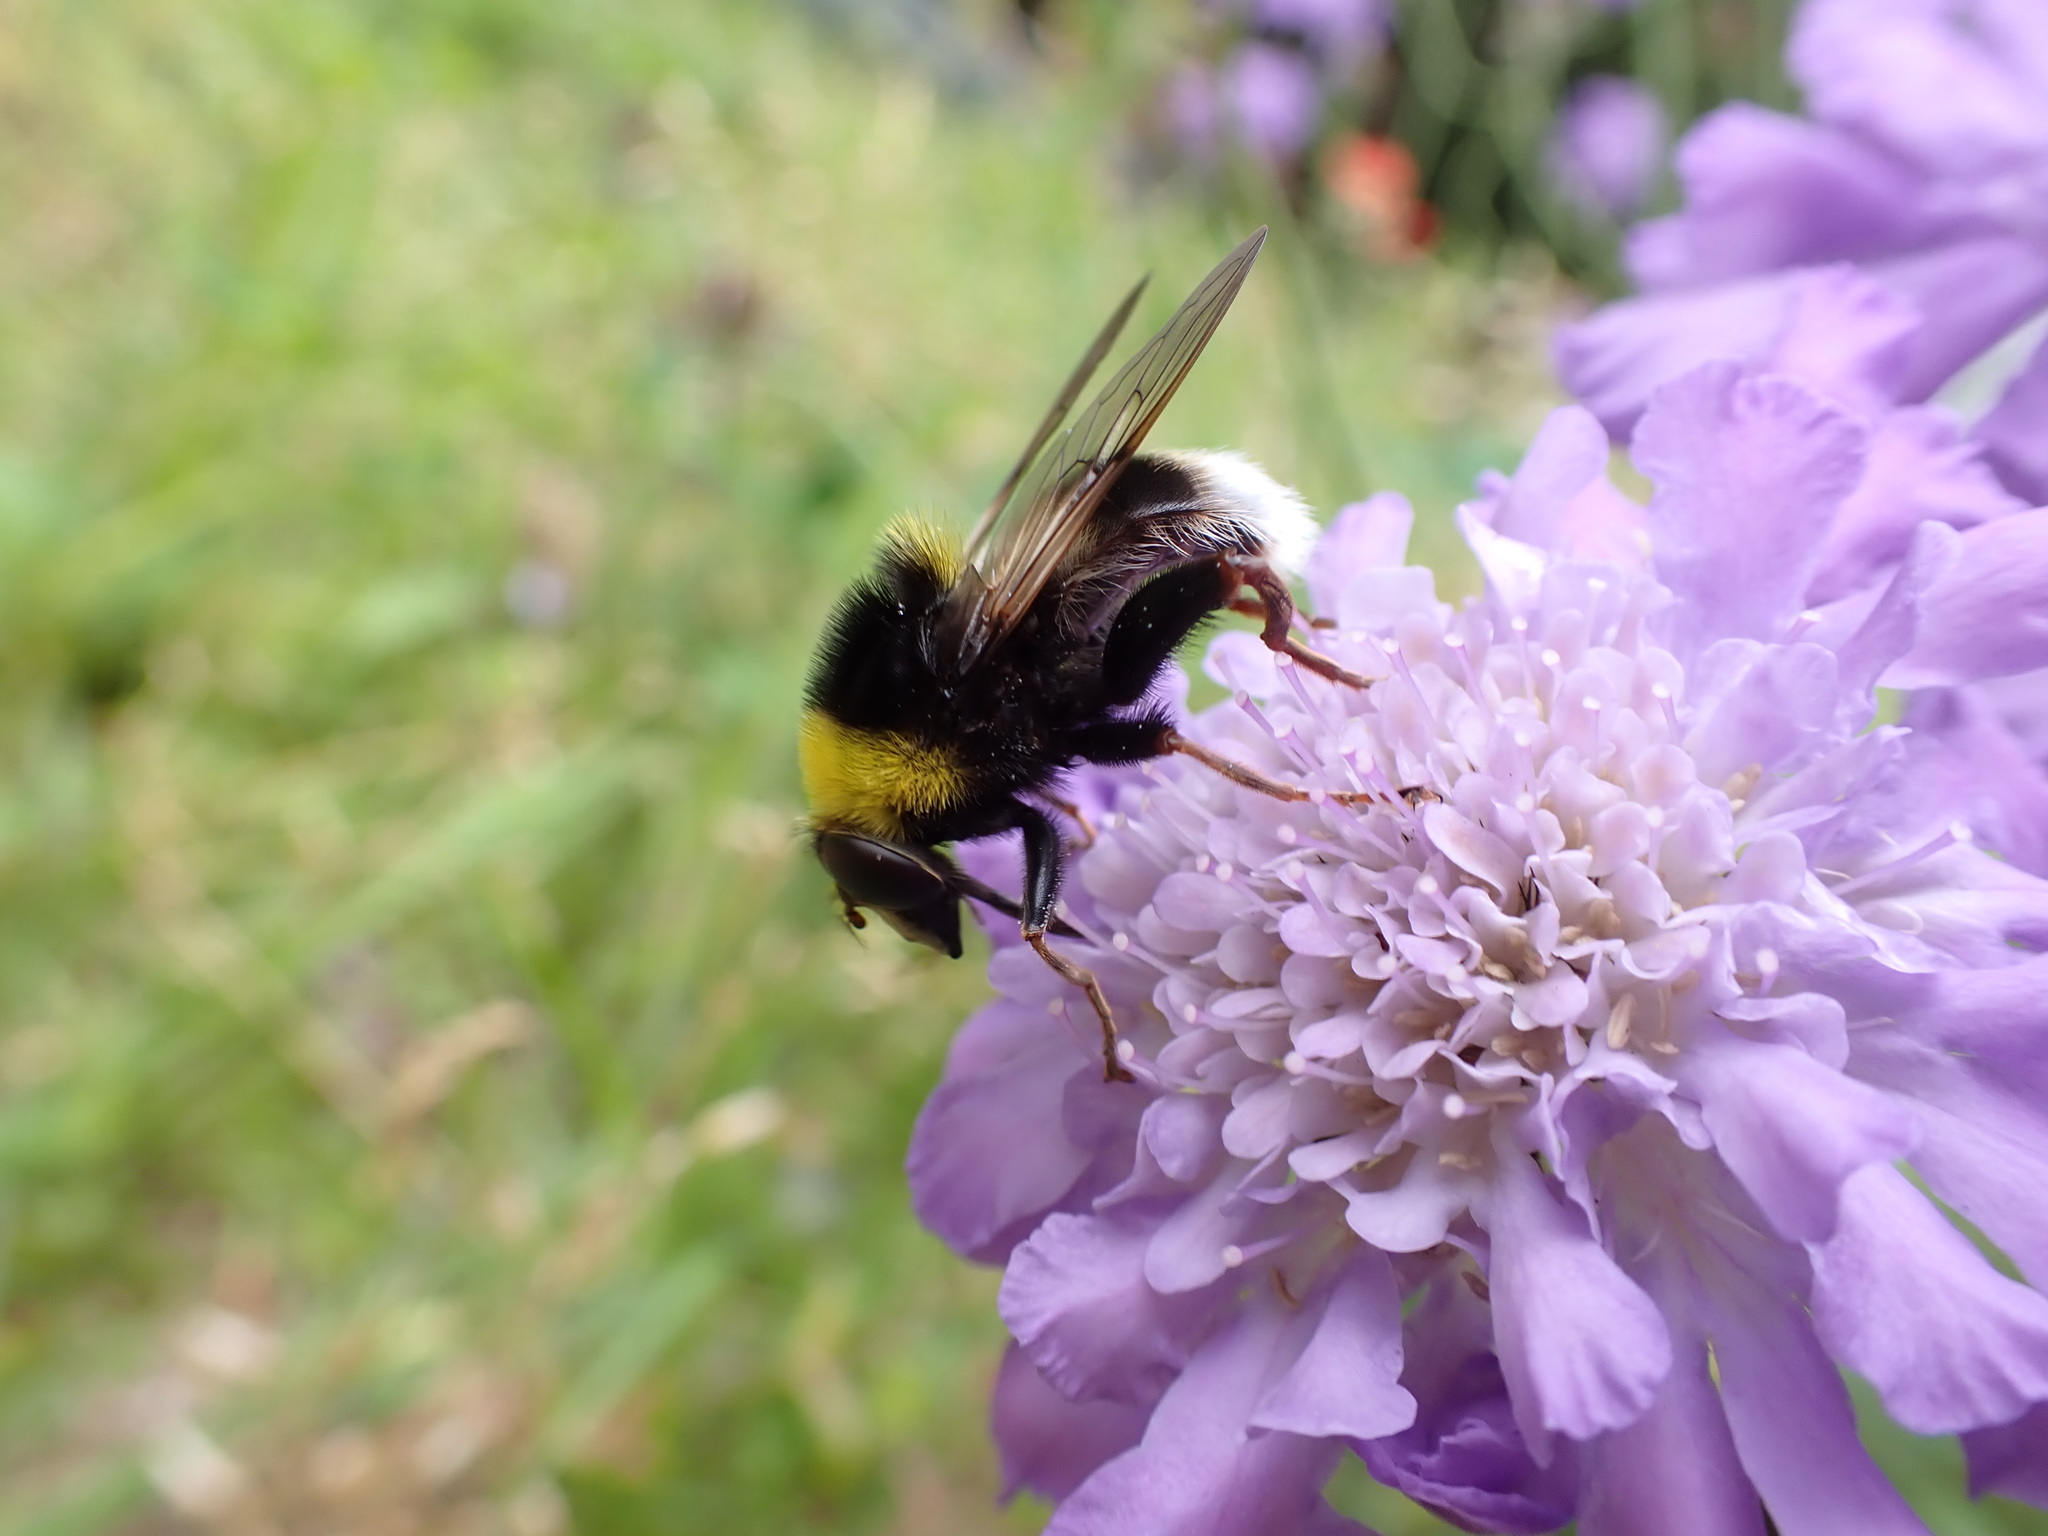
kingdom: Animalia
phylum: Arthropoda
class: Insecta
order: Diptera
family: Syrphidae
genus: Sericomyia
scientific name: Sericomyia bombiformis
